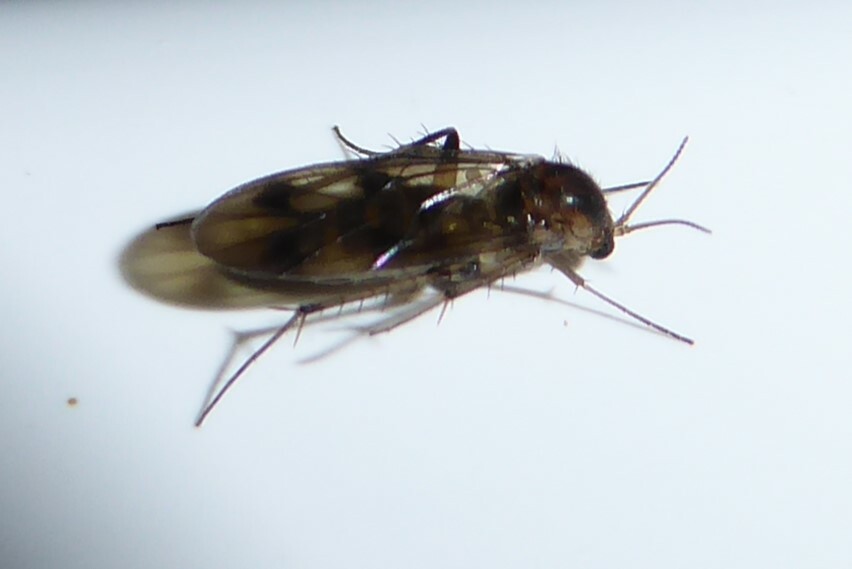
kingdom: Animalia
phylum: Arthropoda
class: Insecta
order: Diptera
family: Mycetophilidae
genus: Anomalomyia
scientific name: Anomalomyia guttata
